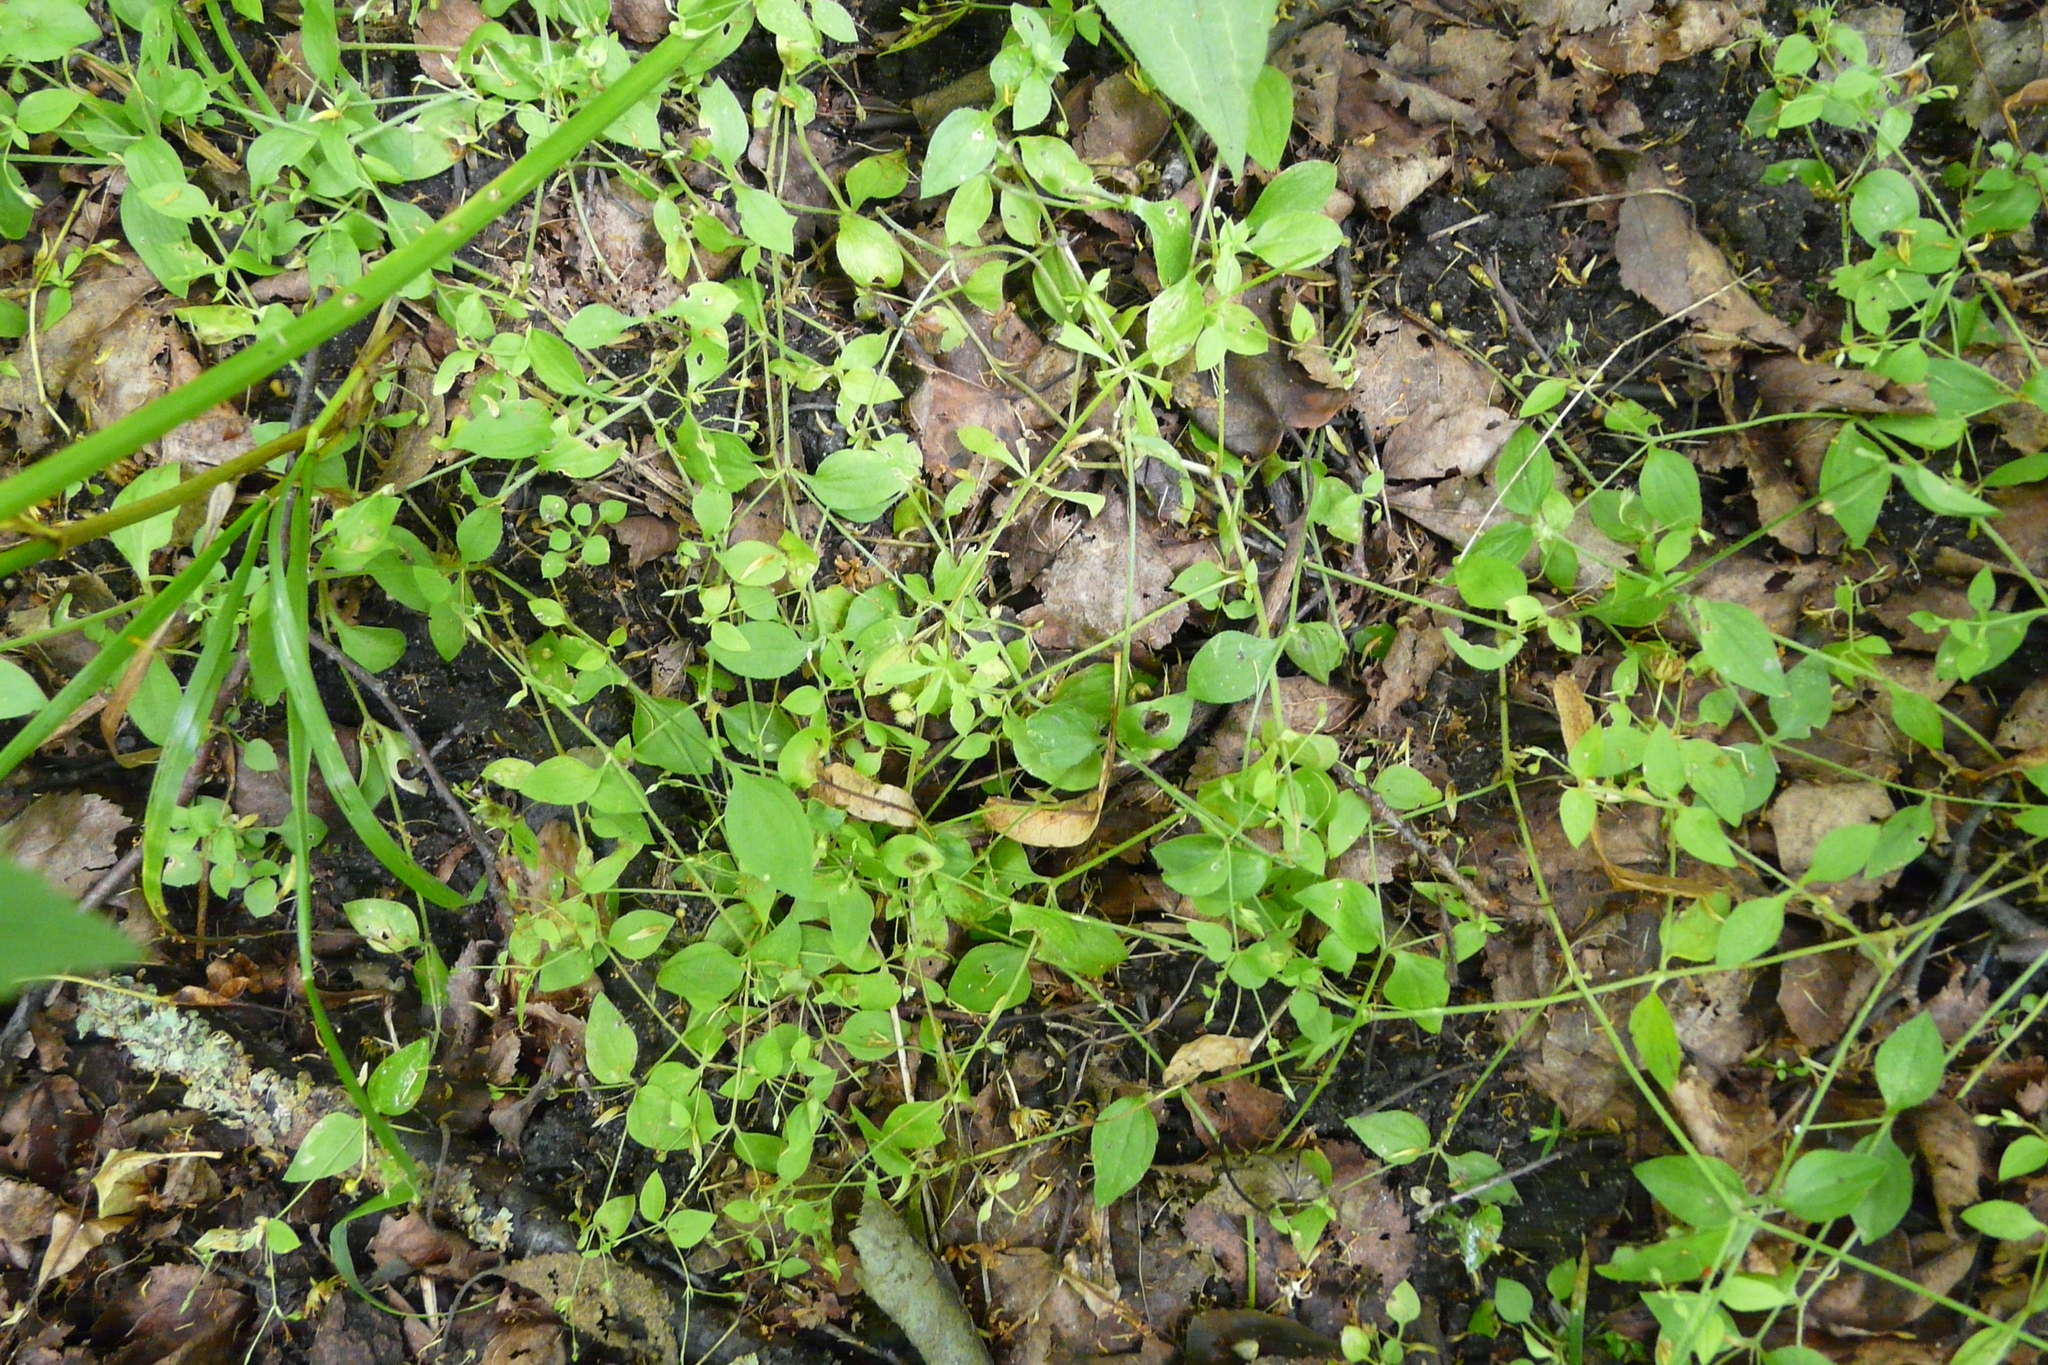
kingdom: Plantae
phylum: Tracheophyta
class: Magnoliopsida
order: Caryophyllales
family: Caryophyllaceae
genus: Moehringia
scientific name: Moehringia trinervia
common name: Three-nerved sandwort
